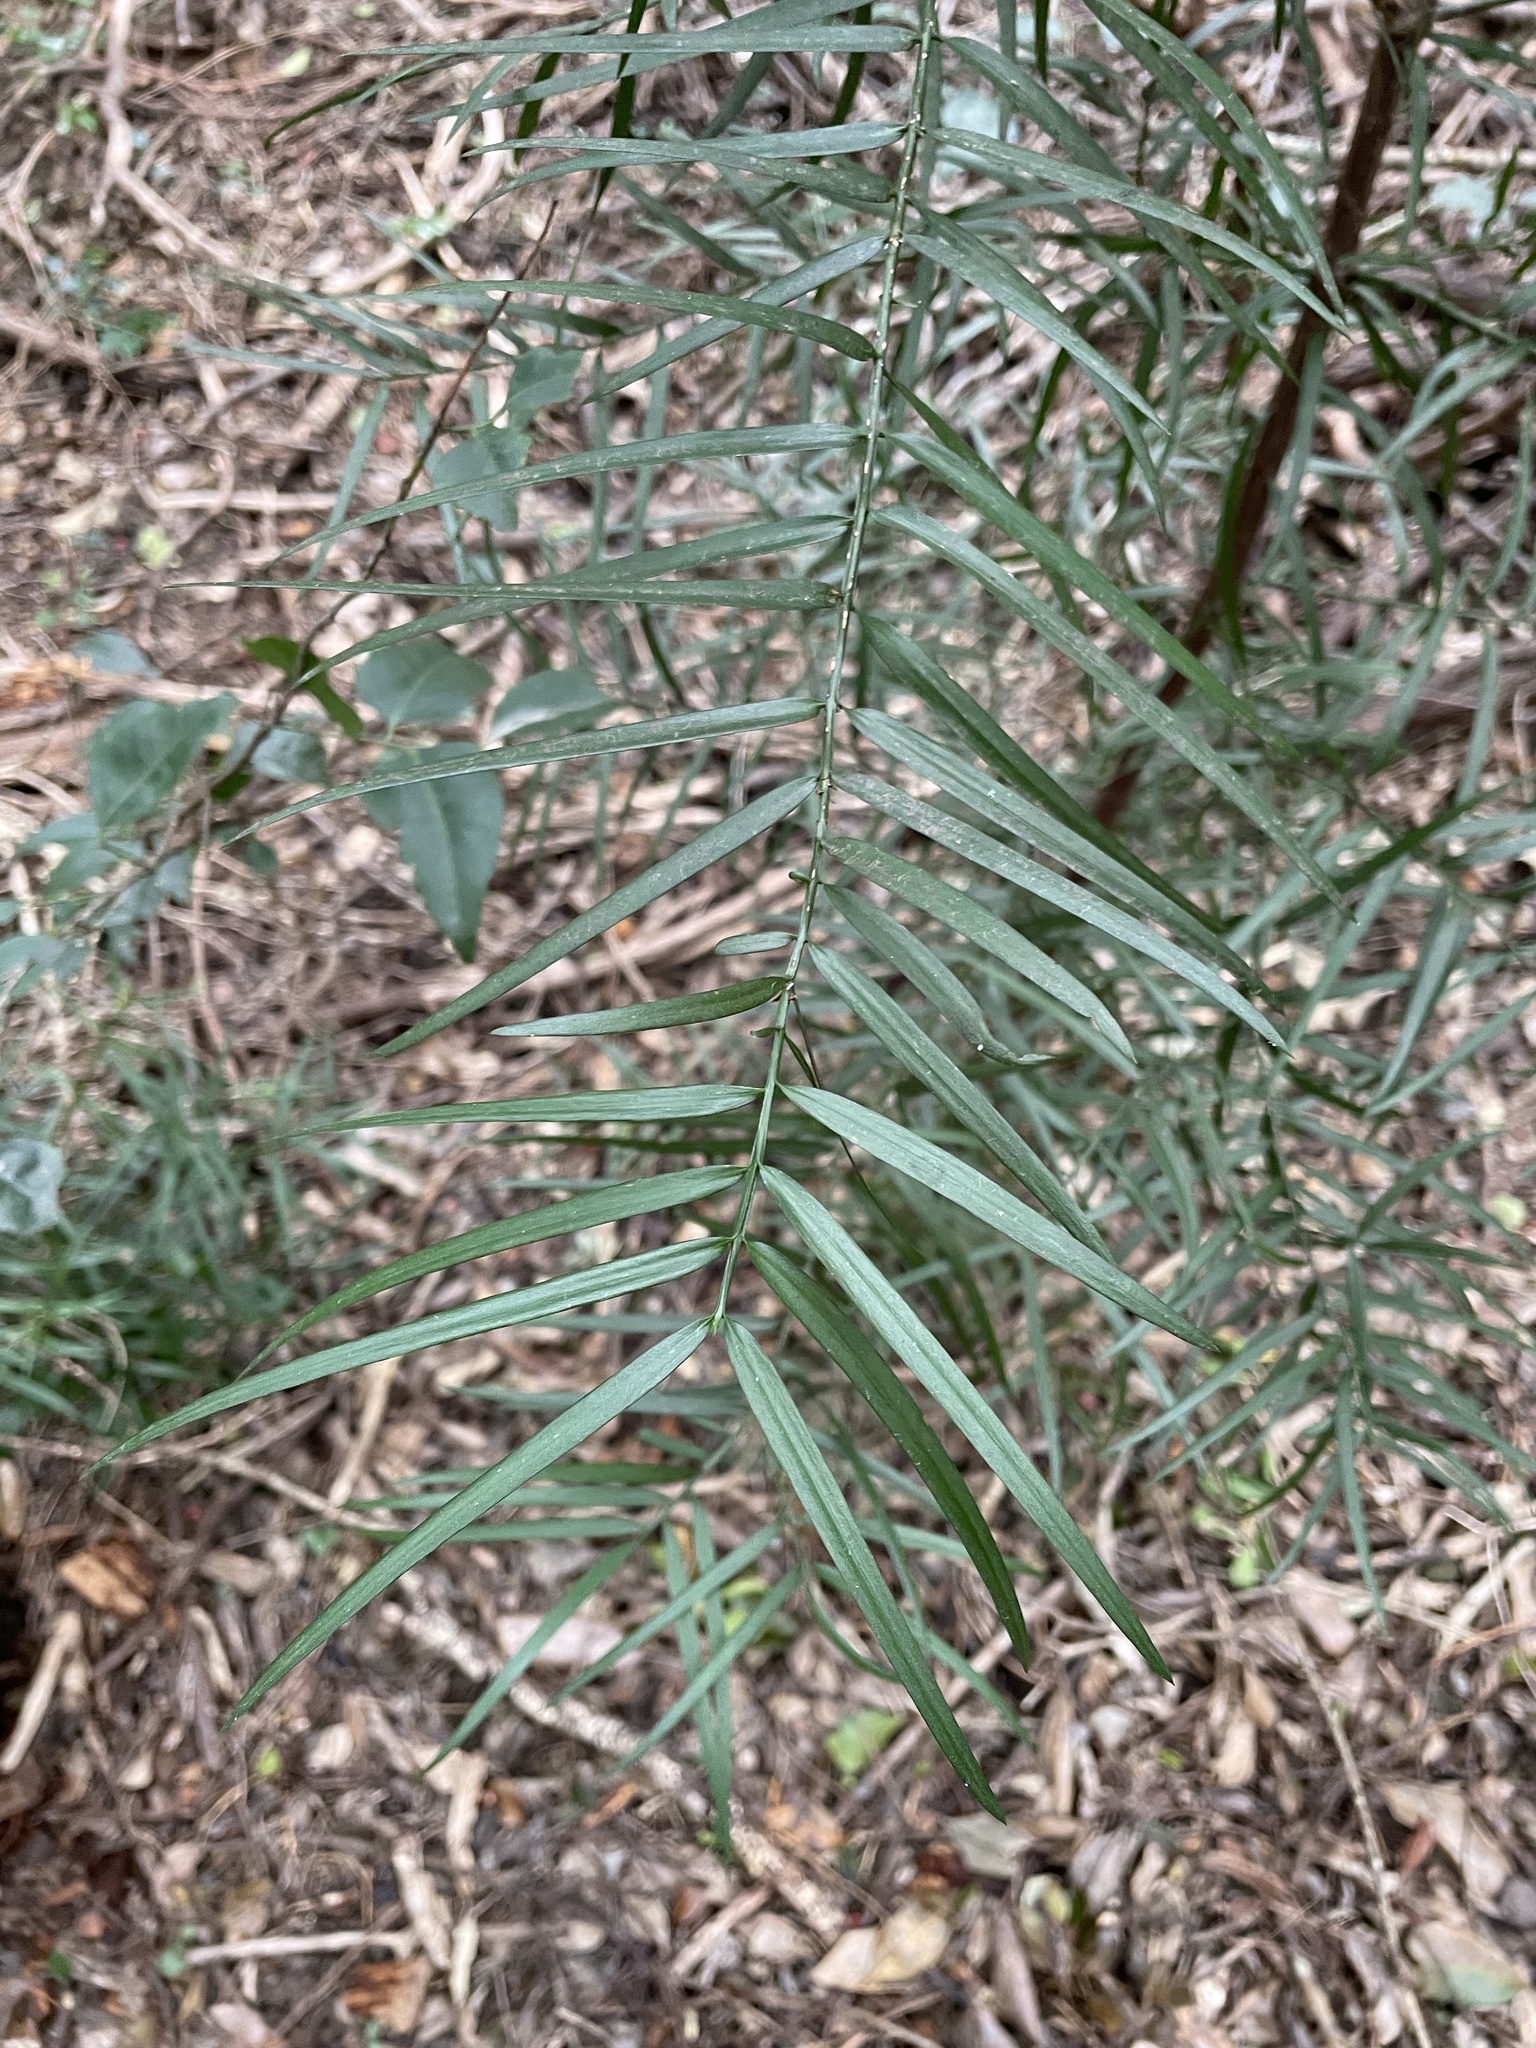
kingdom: Plantae
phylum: Tracheophyta
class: Pinopsida
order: Pinales
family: Podocarpaceae
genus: Afrocarpus
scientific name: Afrocarpus falcatus
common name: Bastard yellowwood
